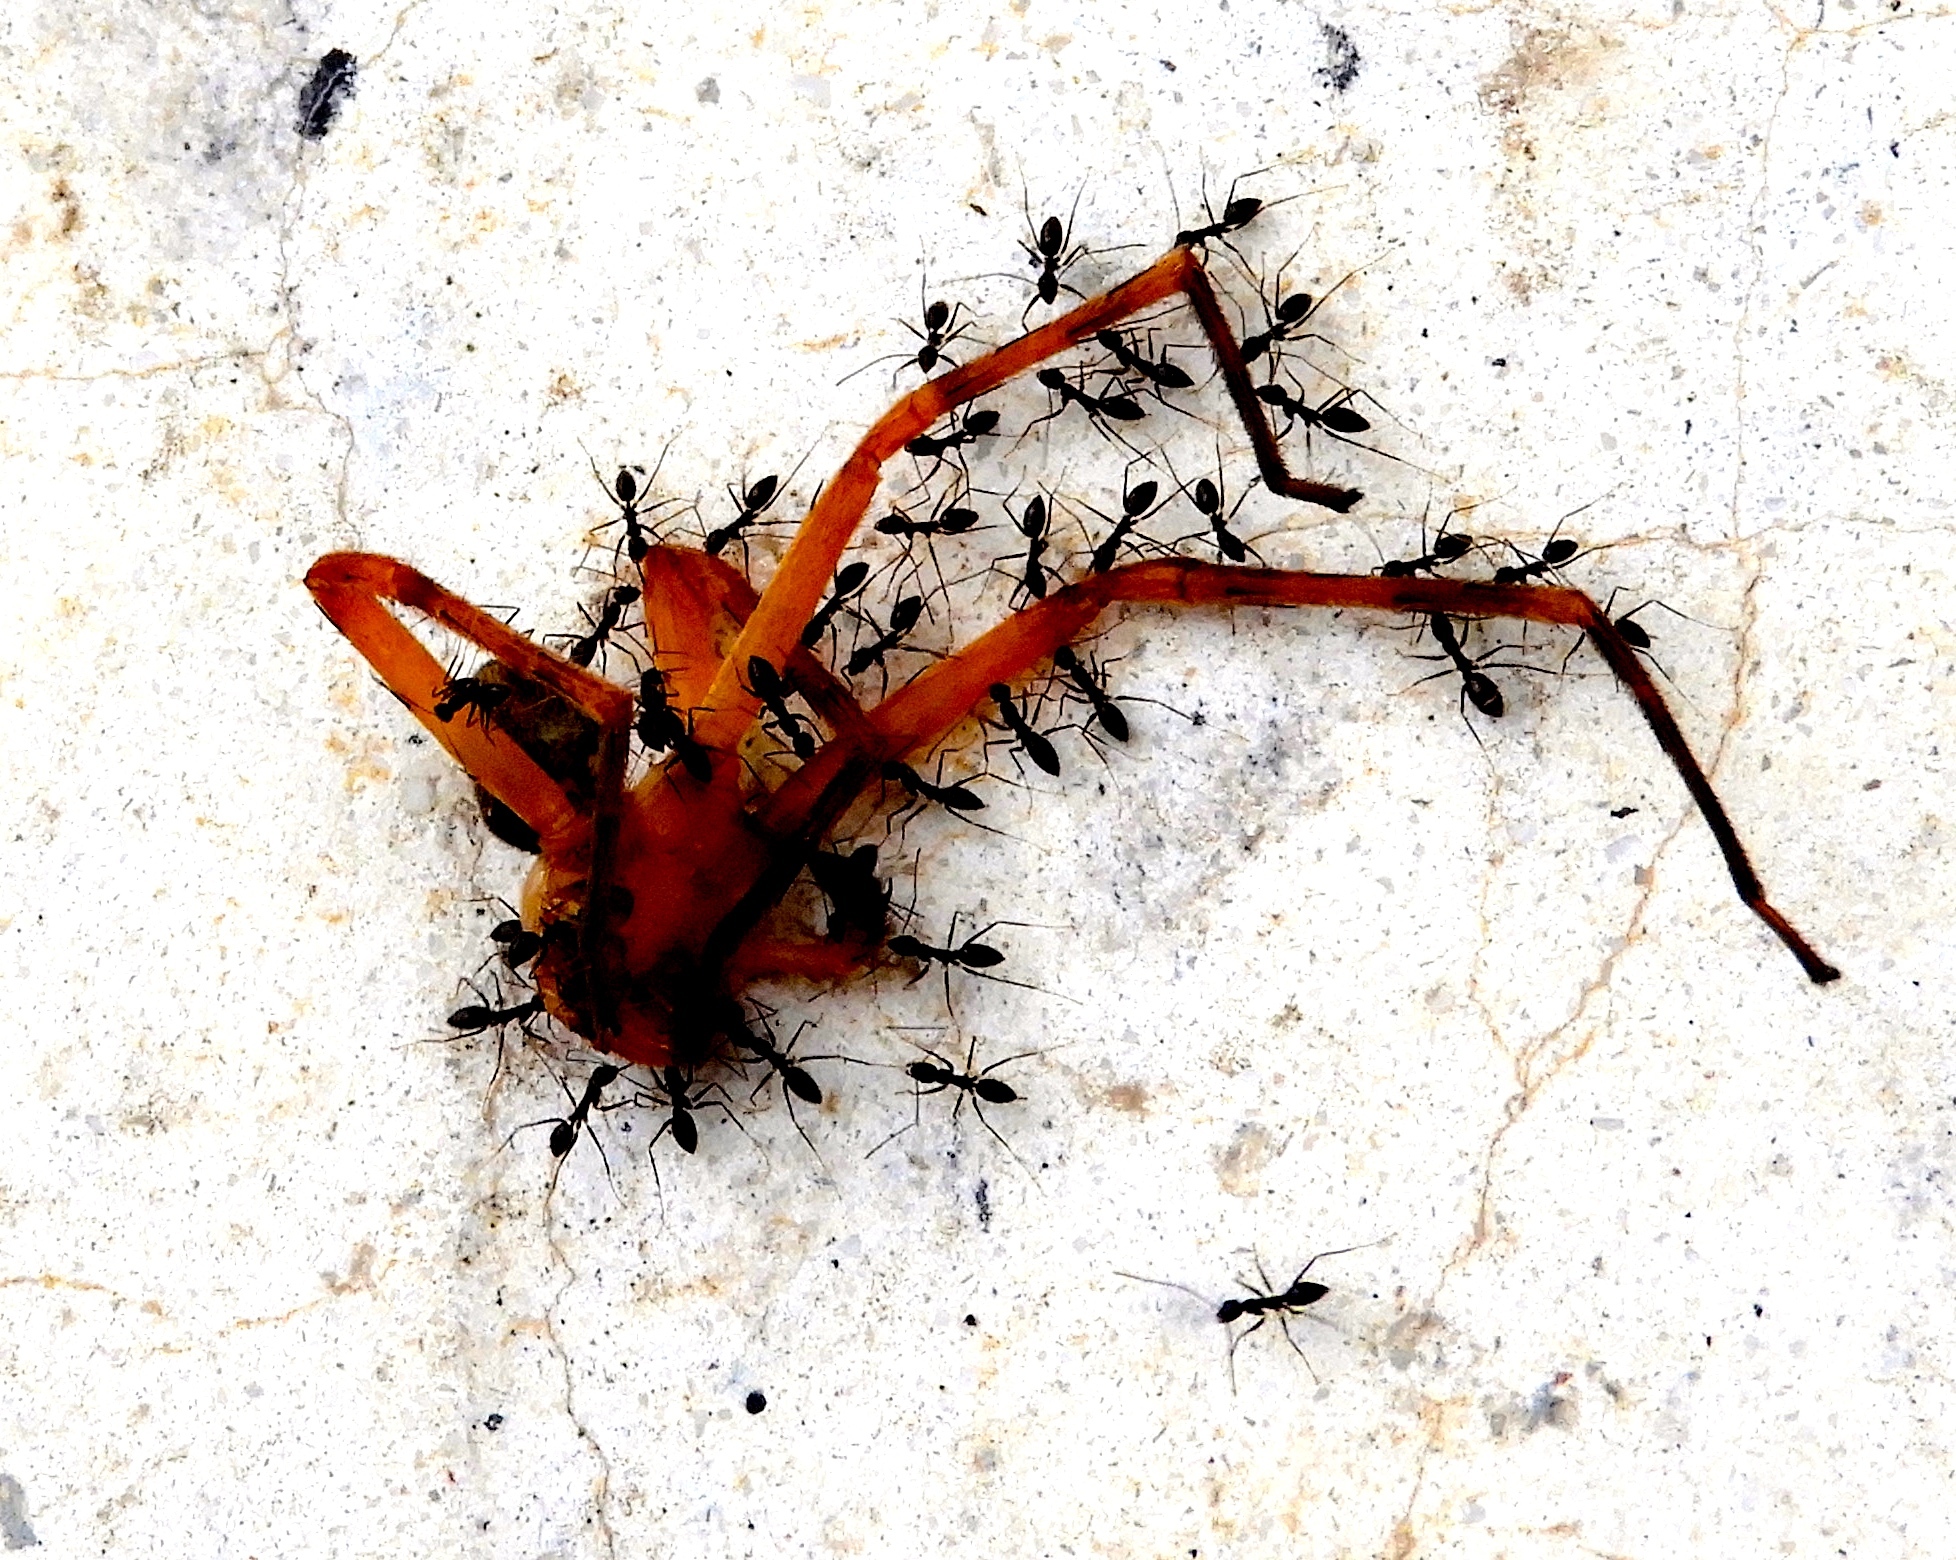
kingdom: Animalia
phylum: Arthropoda
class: Arachnida
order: Araneae
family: Sparassidae
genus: Curicaberis
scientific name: Curicaberis culiacan
